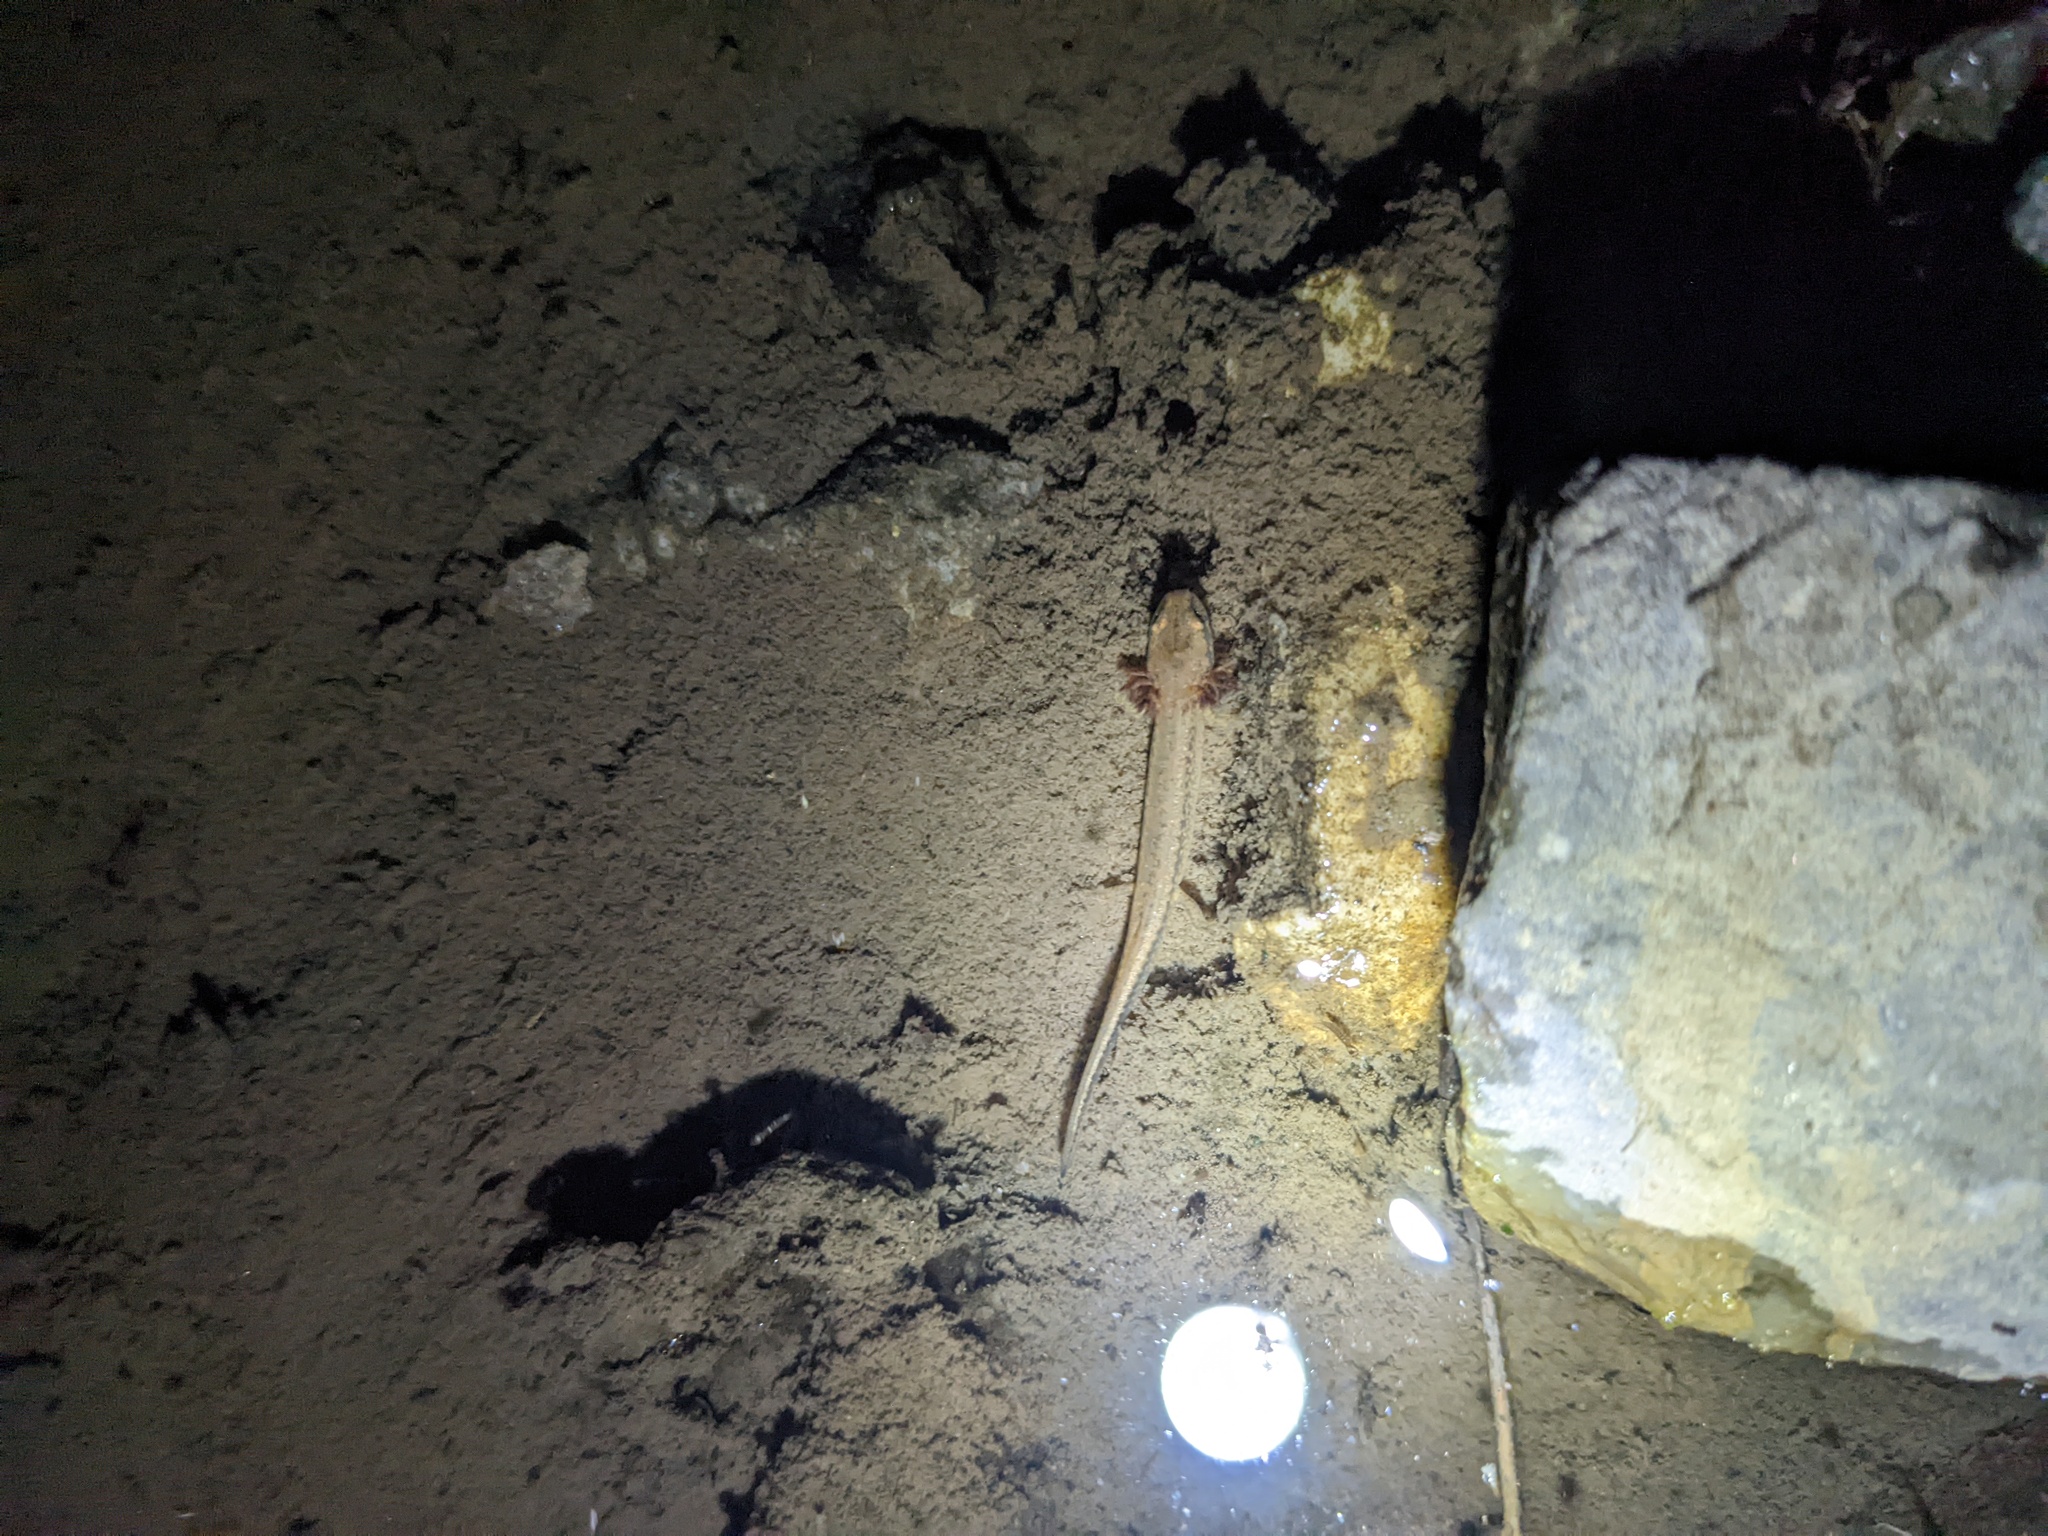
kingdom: Animalia
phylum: Chordata
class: Amphibia
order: Caudata
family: Plethodontidae
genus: Eurycea
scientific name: Eurycea longicauda
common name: Long-tailed salamander
